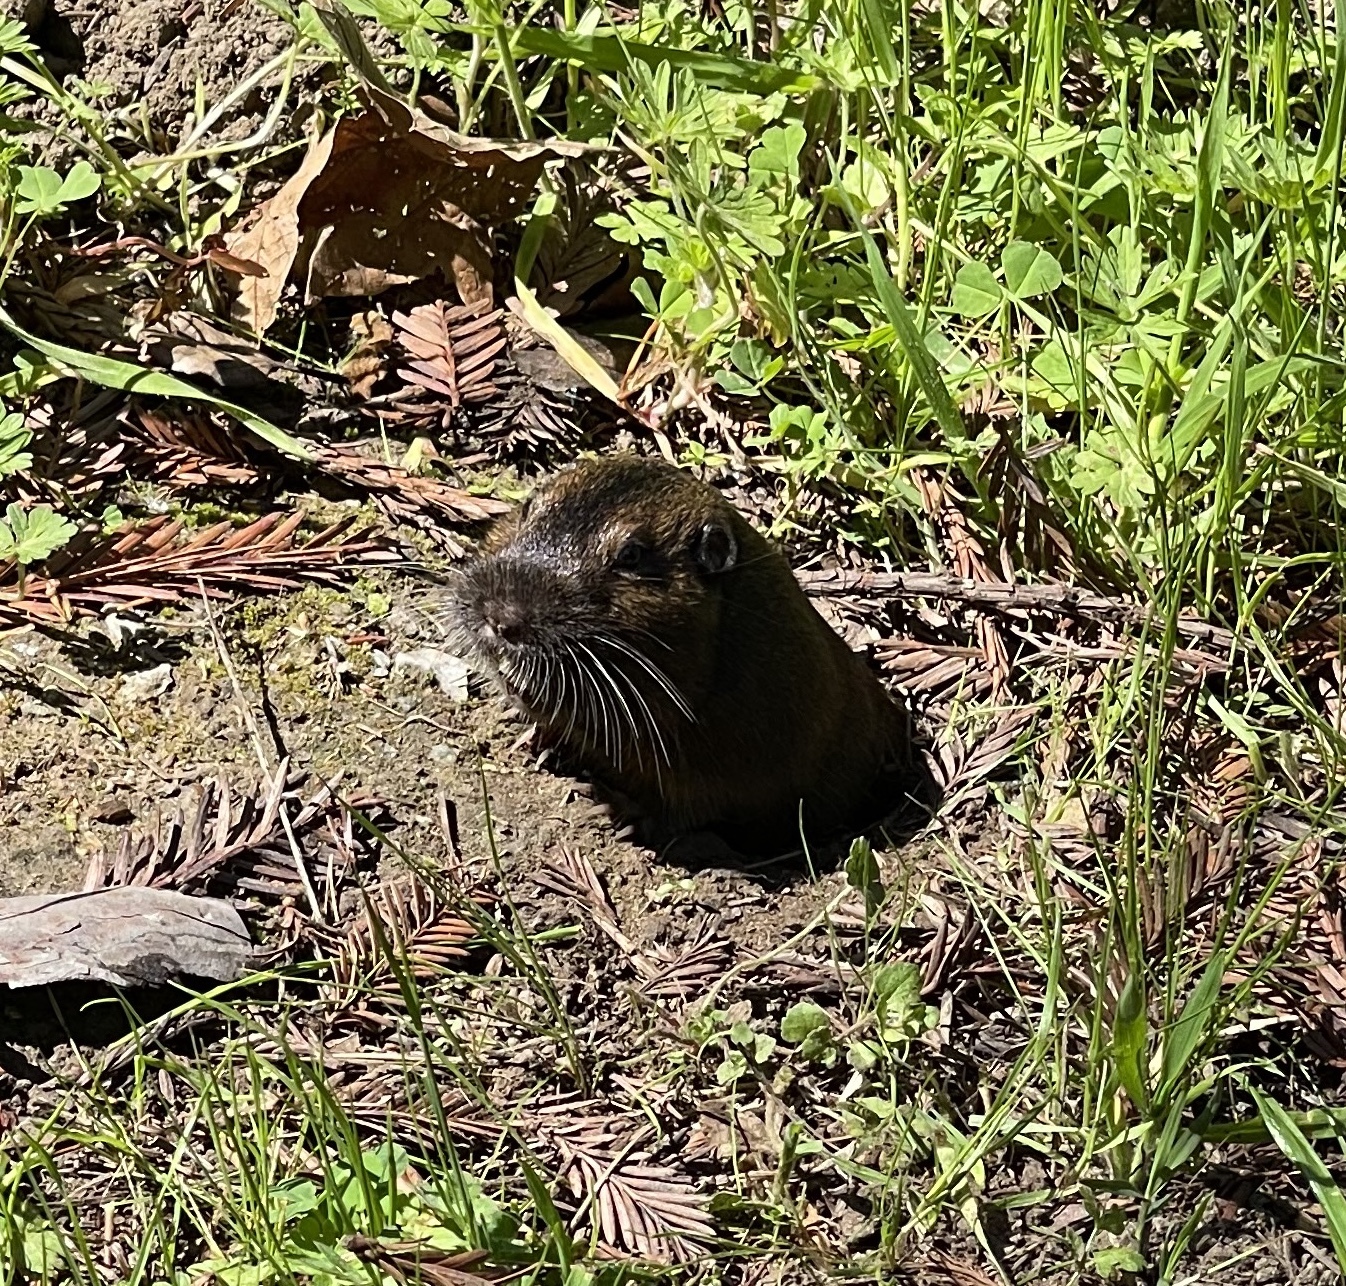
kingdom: Animalia
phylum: Chordata
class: Mammalia
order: Rodentia
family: Geomyidae
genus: Thomomys
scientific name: Thomomys bottae
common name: Botta's pocket gopher
